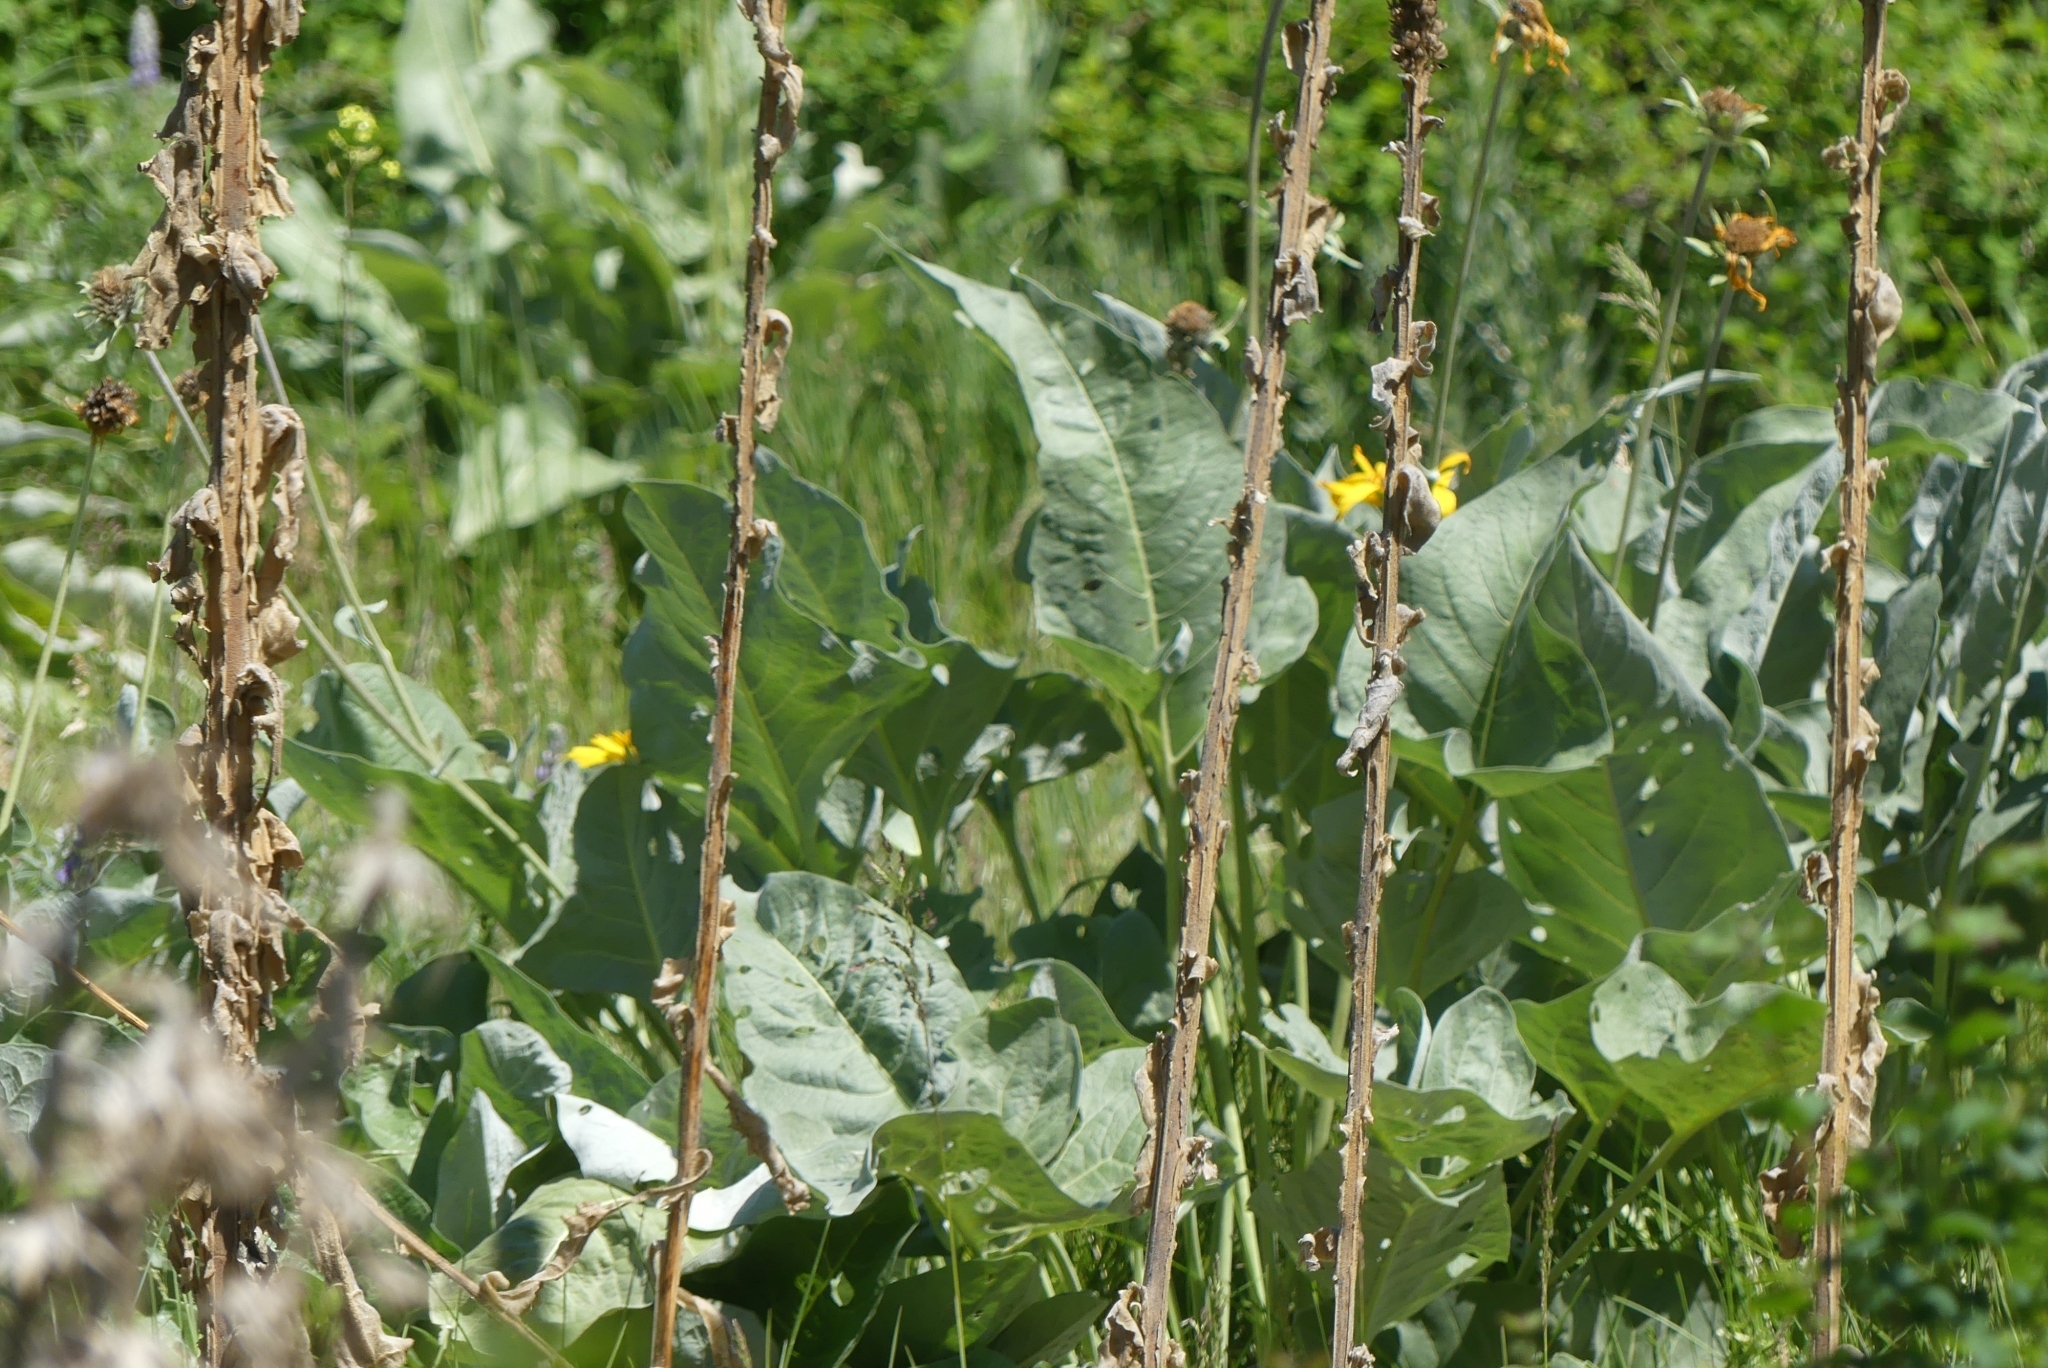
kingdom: Plantae
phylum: Tracheophyta
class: Magnoliopsida
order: Asterales
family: Asteraceae
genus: Wyethia
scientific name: Wyethia sagittata
